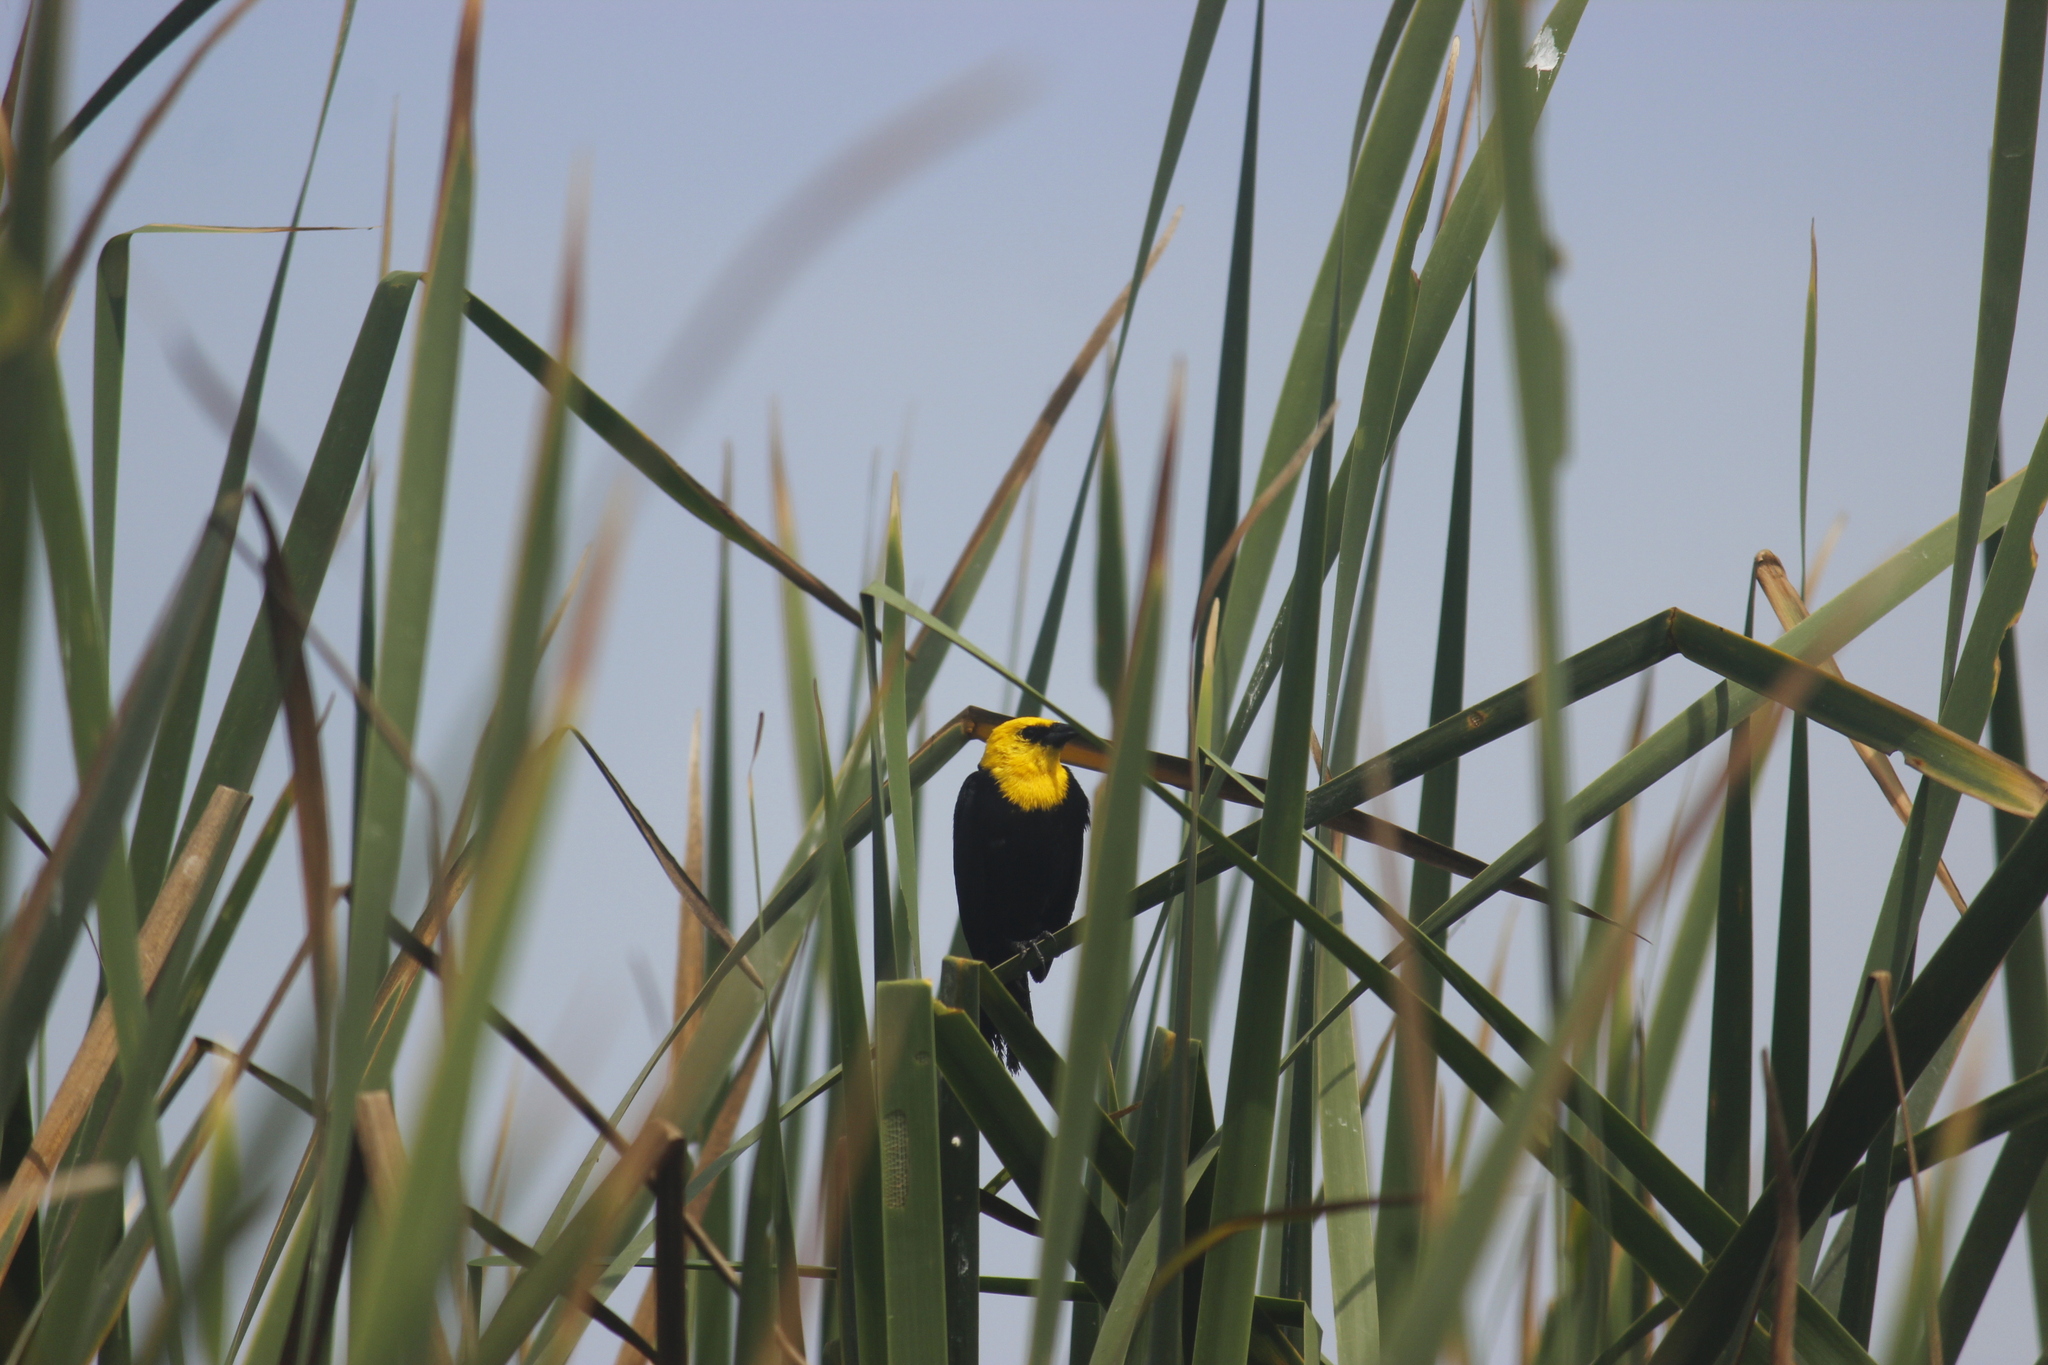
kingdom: Animalia
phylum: Chordata
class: Aves
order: Passeriformes
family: Icteridae
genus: Chrysomus
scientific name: Chrysomus icterocephalus
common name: Yellow-hooded blackbird
